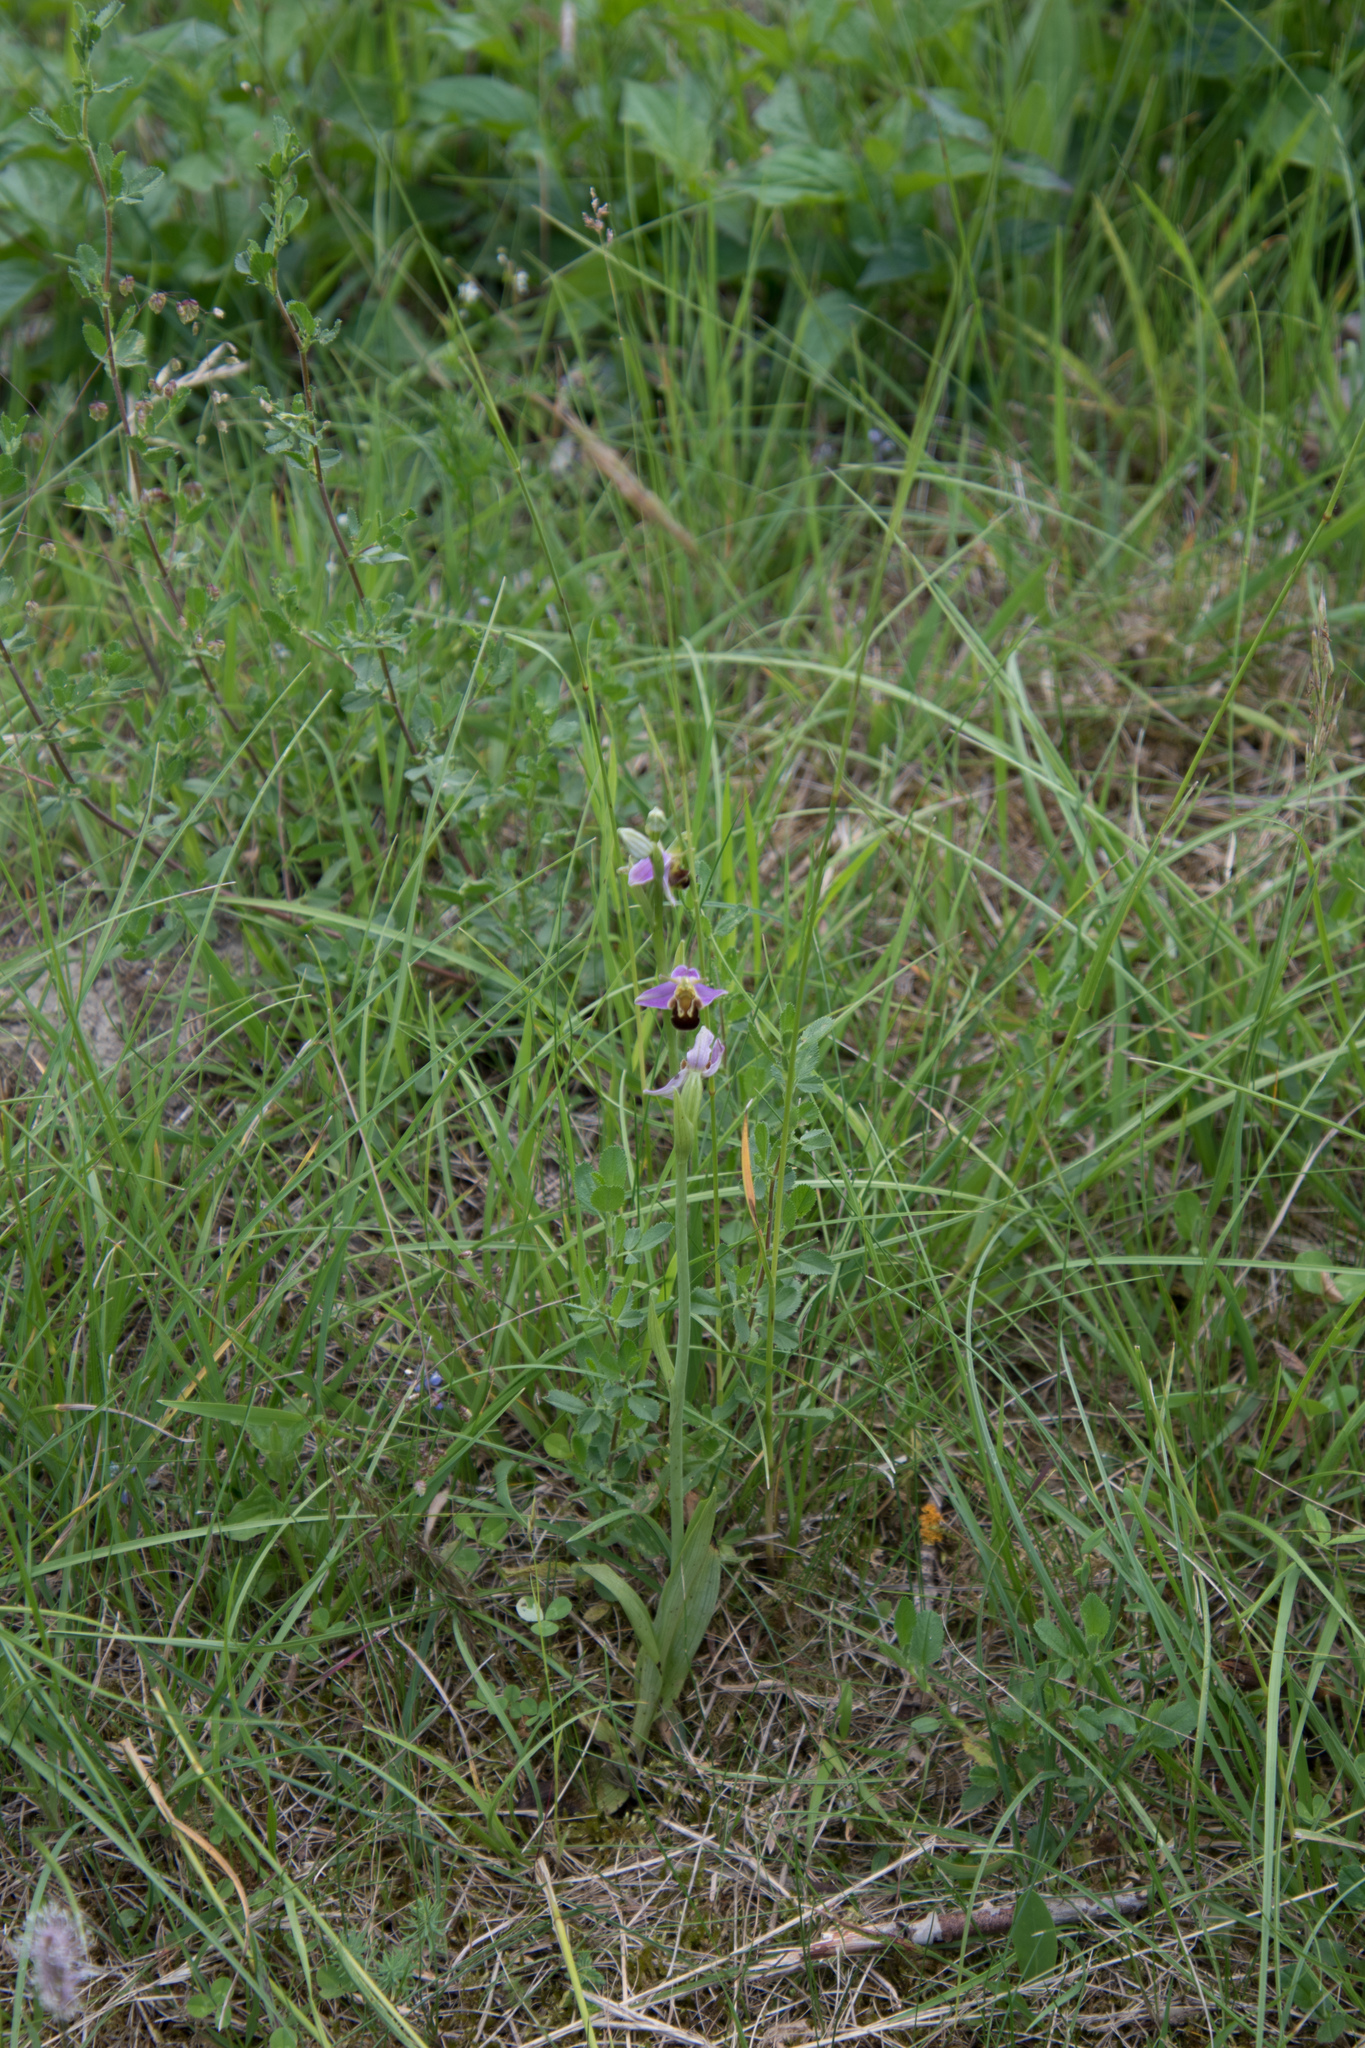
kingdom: Plantae
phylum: Tracheophyta
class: Liliopsida
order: Asparagales
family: Orchidaceae
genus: Ophrys
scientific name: Ophrys apifera
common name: Bee orchid
